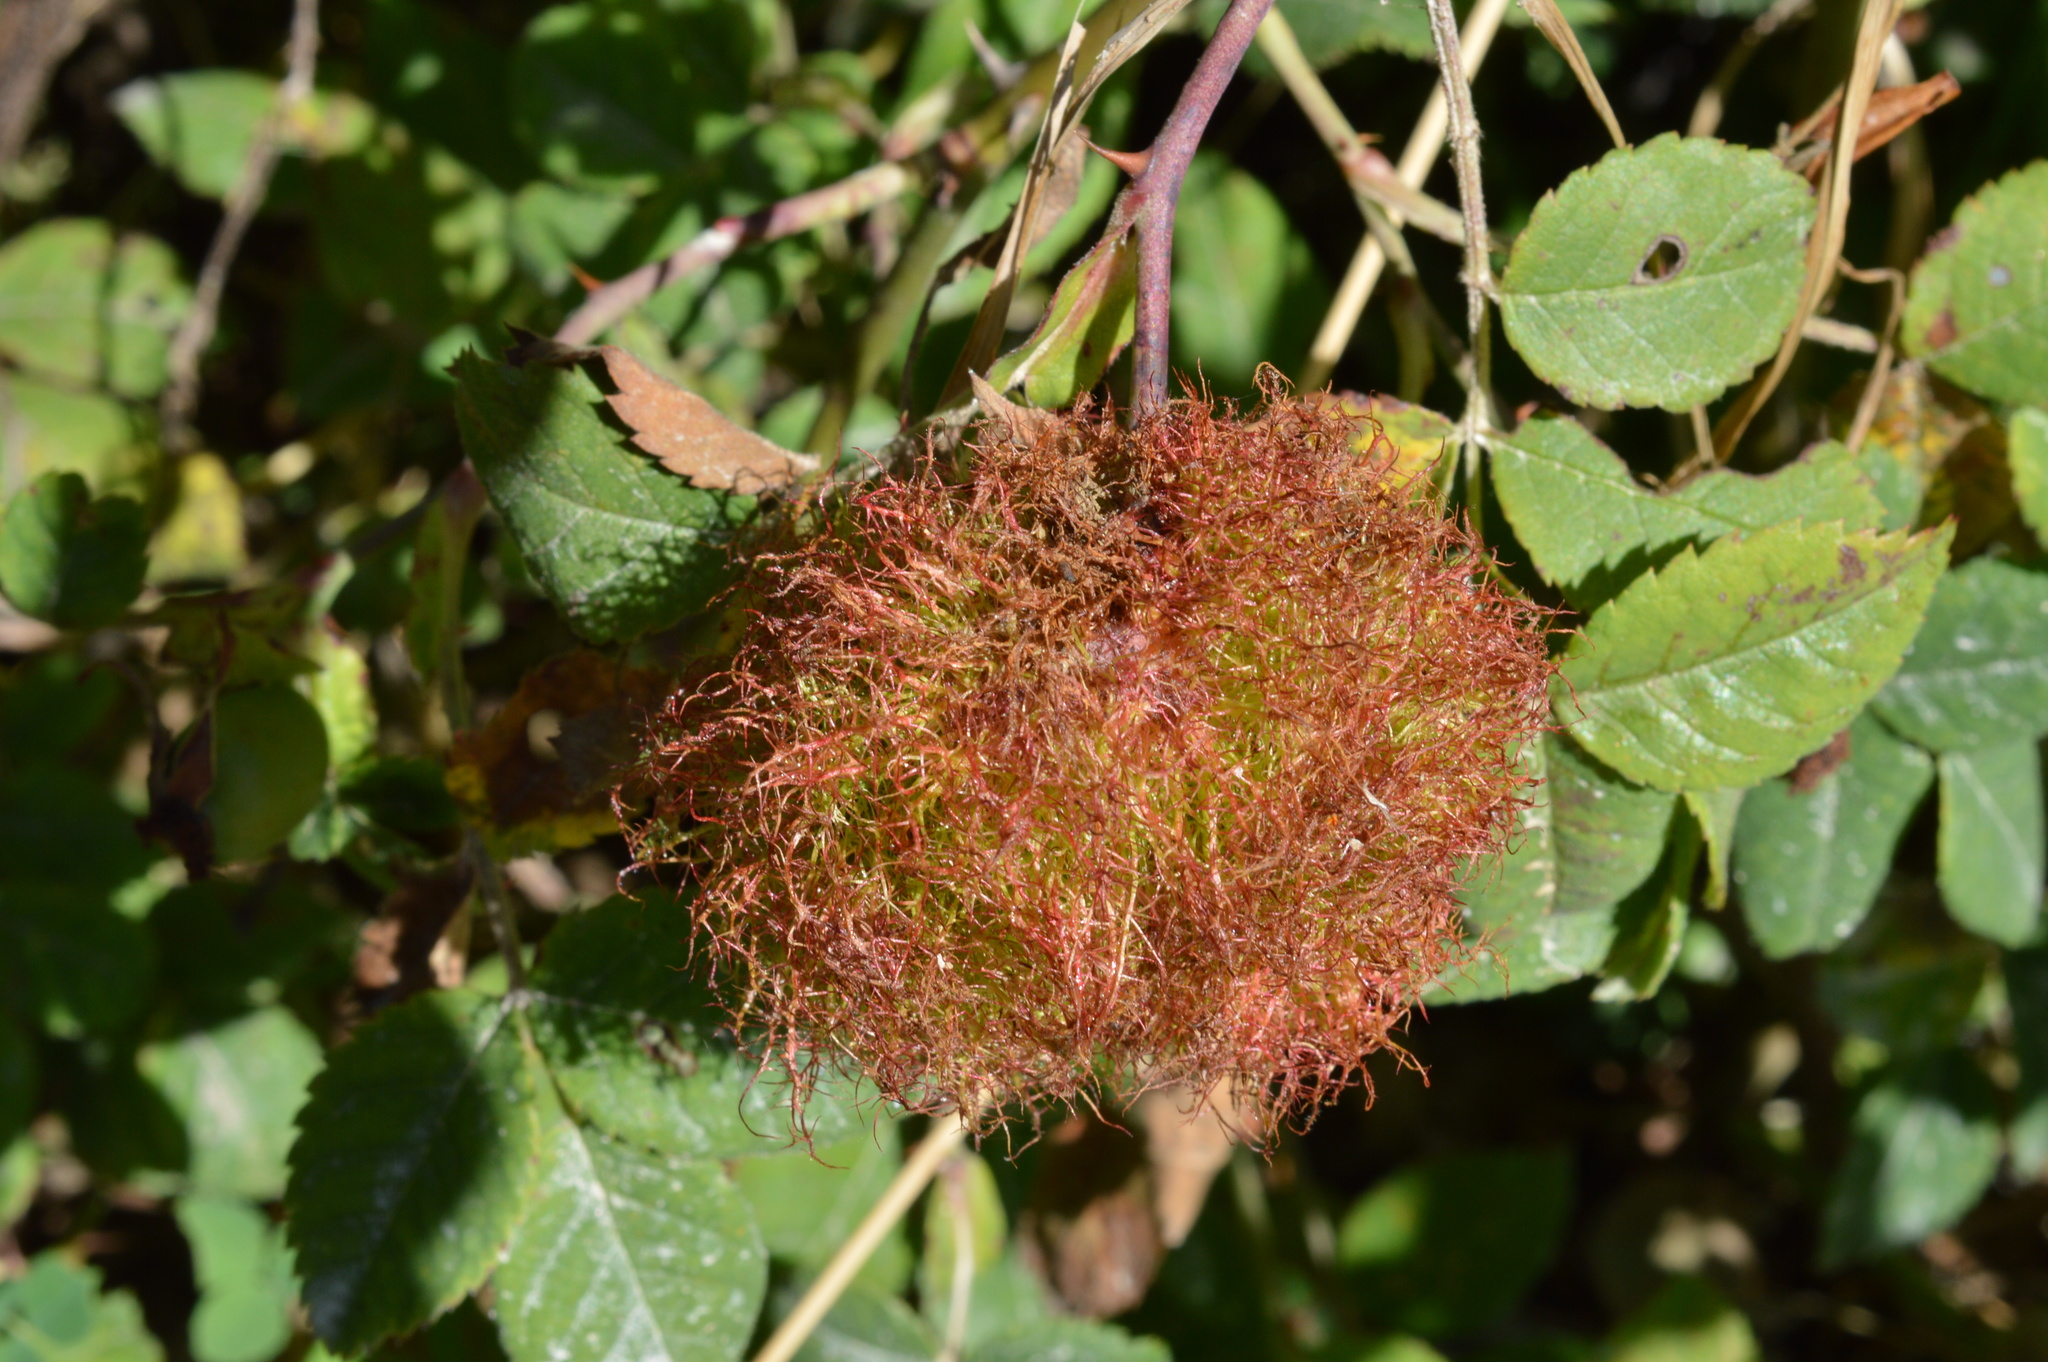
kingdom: Animalia
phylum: Arthropoda
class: Insecta
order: Hymenoptera
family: Cynipidae
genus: Diplolepis
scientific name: Diplolepis rosae
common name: Bedeguar gall
